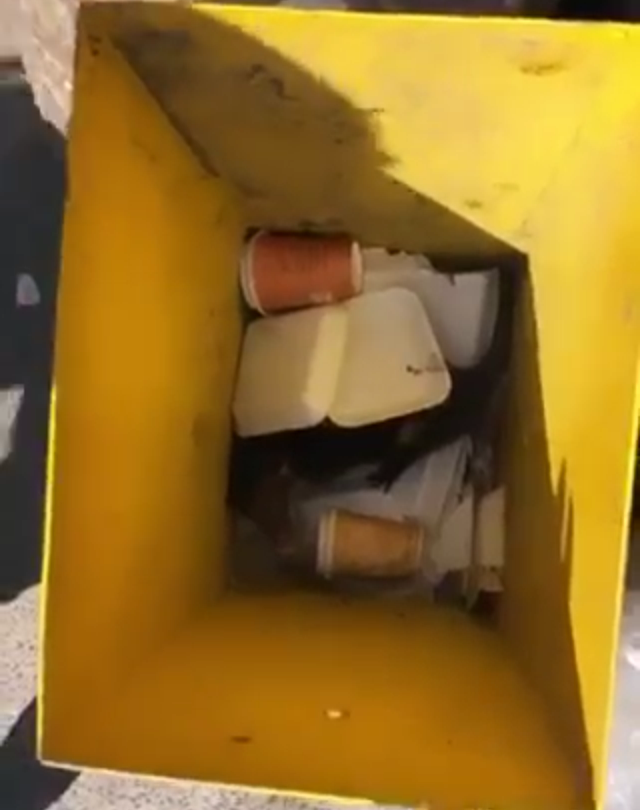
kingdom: Animalia
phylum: Chordata
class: Mammalia
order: Didelphimorphia
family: Didelphidae
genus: Didelphis
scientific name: Didelphis virginiana
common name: Virginia opossum
